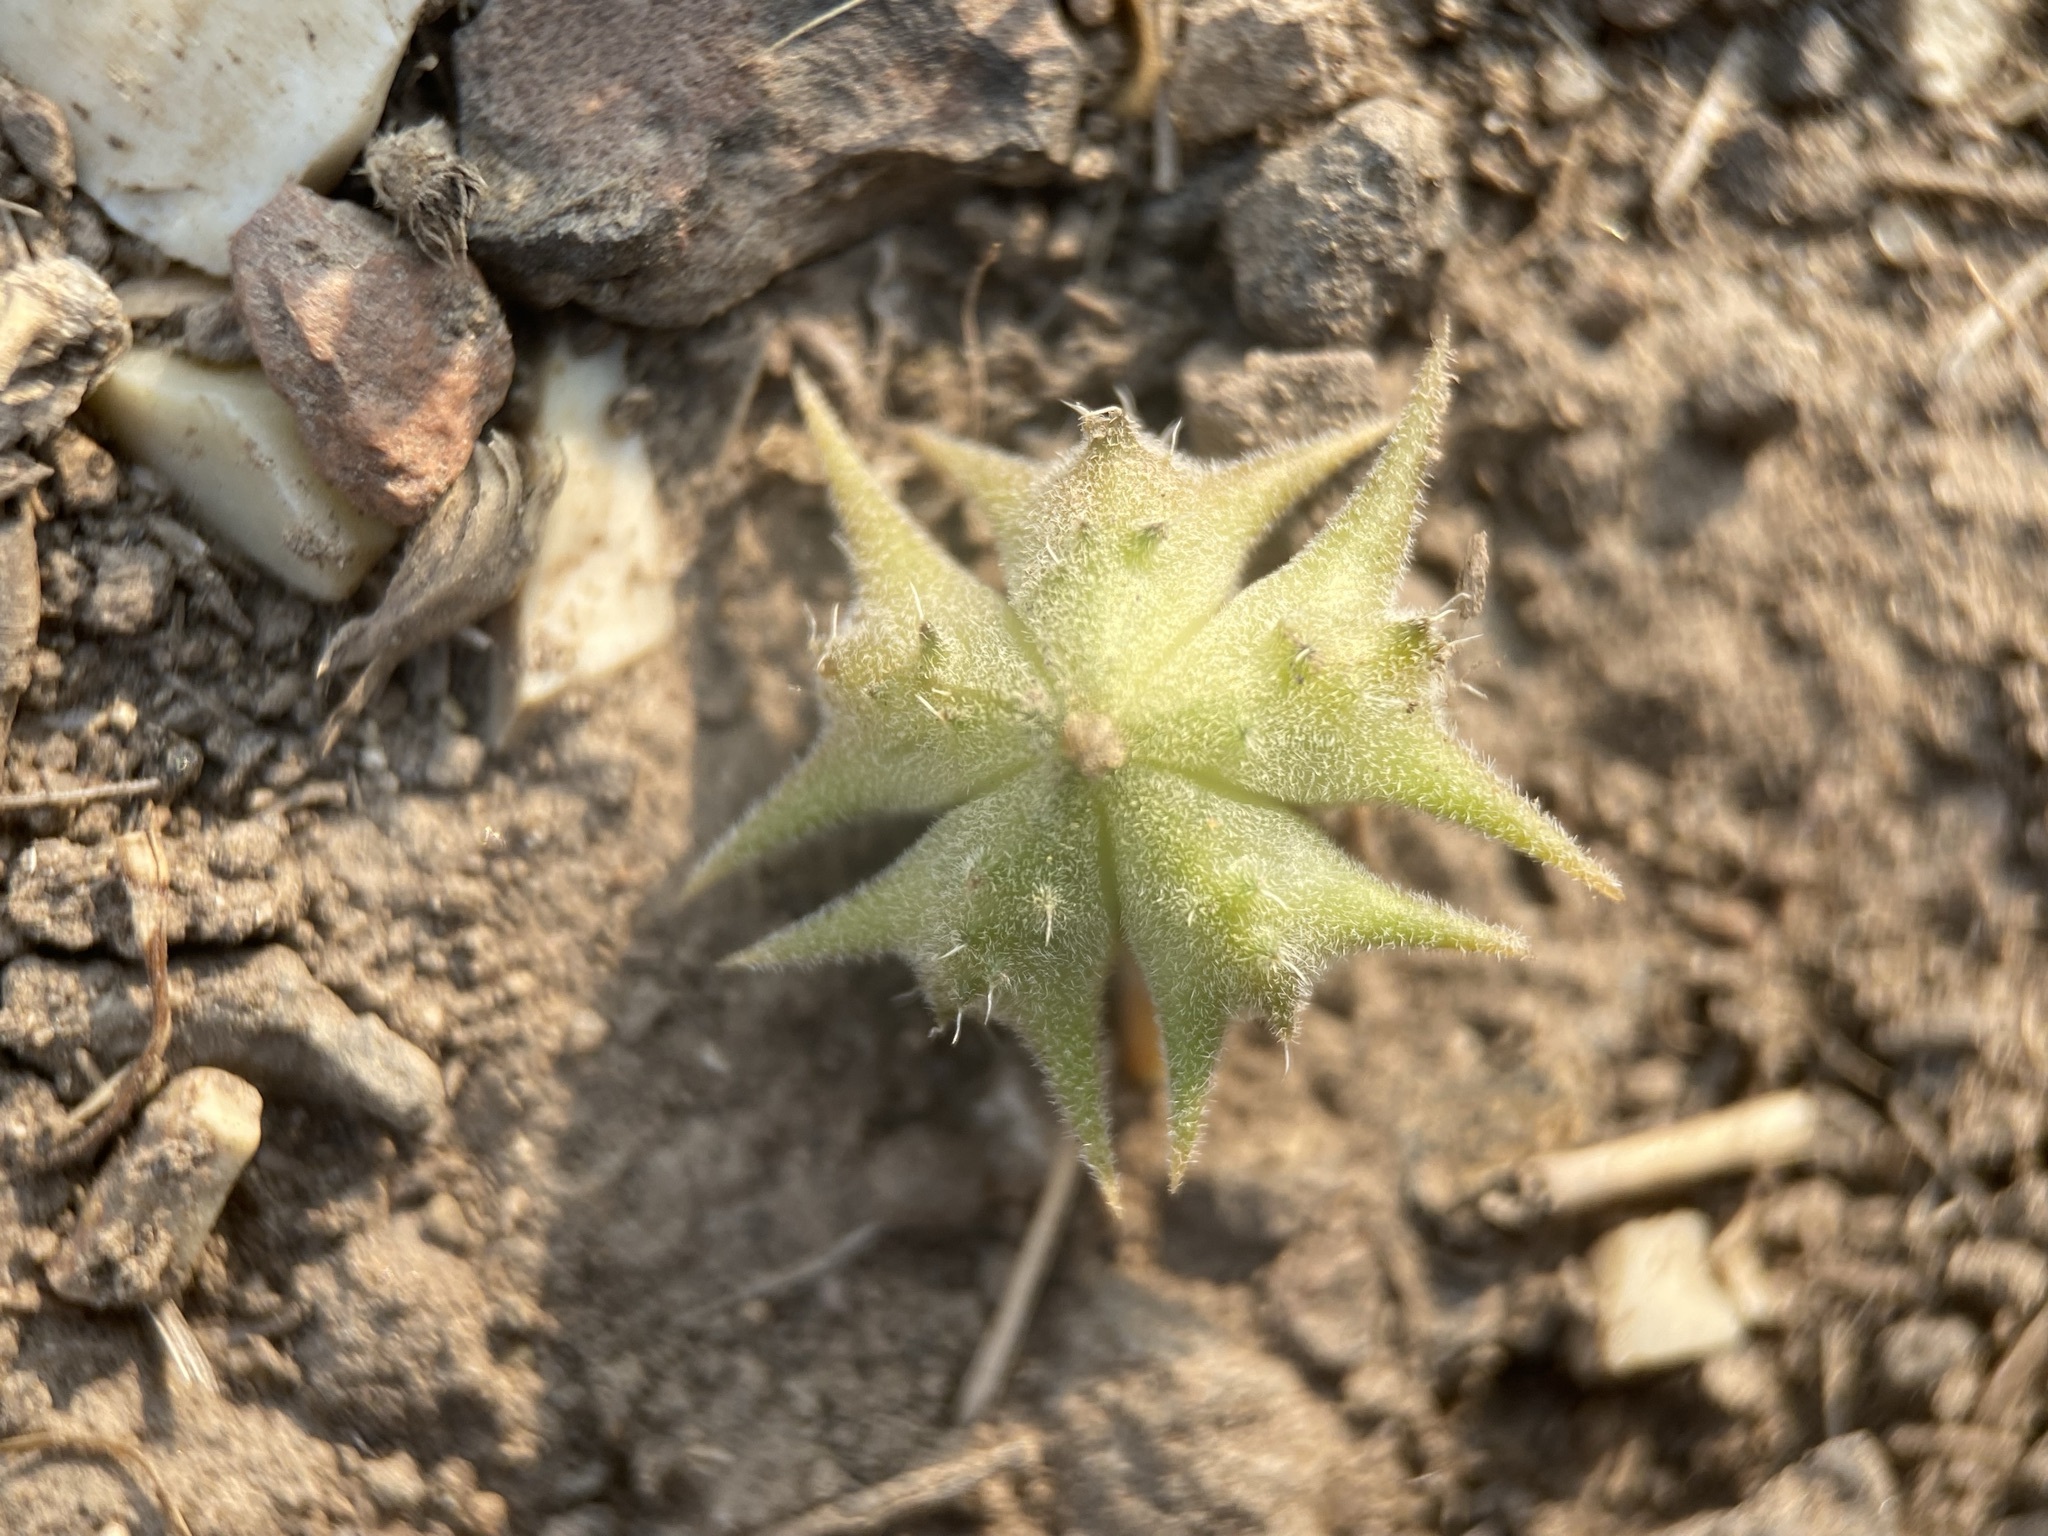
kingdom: Plantae
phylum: Tracheophyta
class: Magnoliopsida
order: Zygophyllales
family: Zygophyllaceae
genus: Tribulus
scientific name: Tribulus terrestris
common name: Puncturevine
